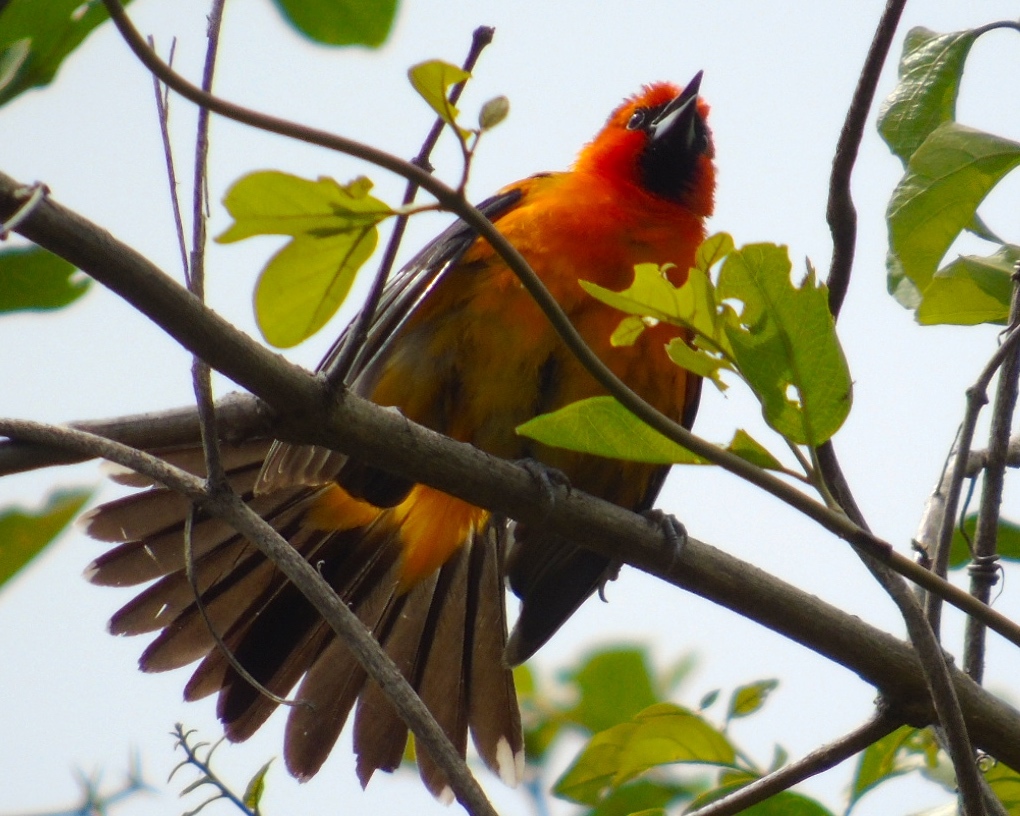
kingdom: Animalia
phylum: Chordata
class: Aves
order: Passeriformes
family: Icteridae
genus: Icterus
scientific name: Icterus pustulatus
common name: Streak-backed oriole
